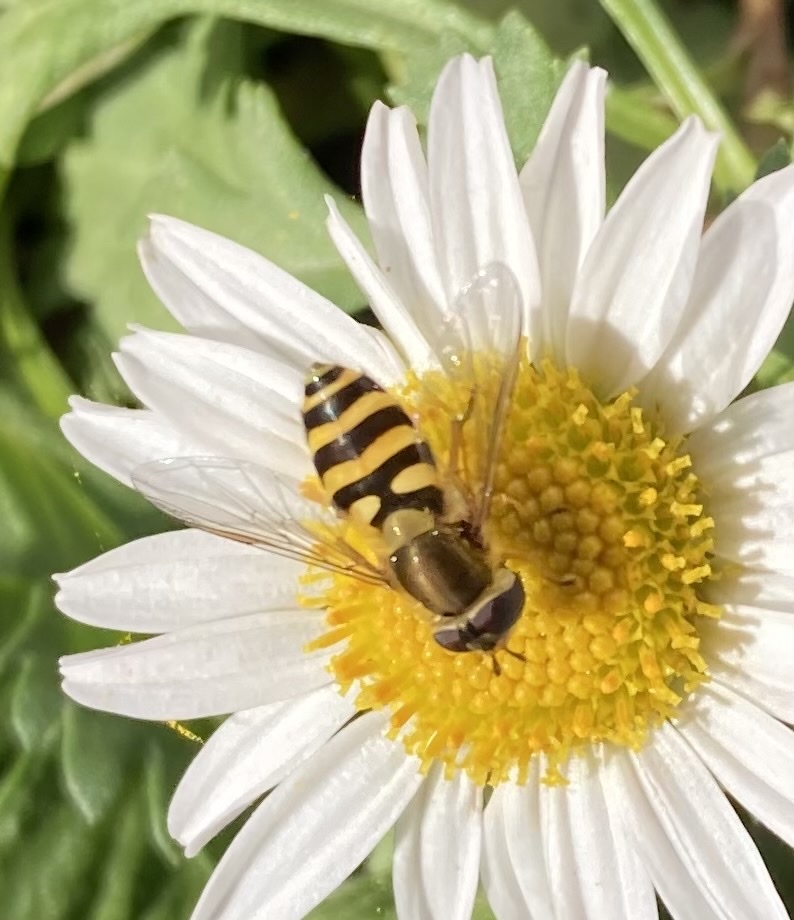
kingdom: Animalia
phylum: Arthropoda
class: Insecta
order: Diptera
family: Syrphidae
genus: Syrphus
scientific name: Syrphus ribesii
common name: Common flower fly
